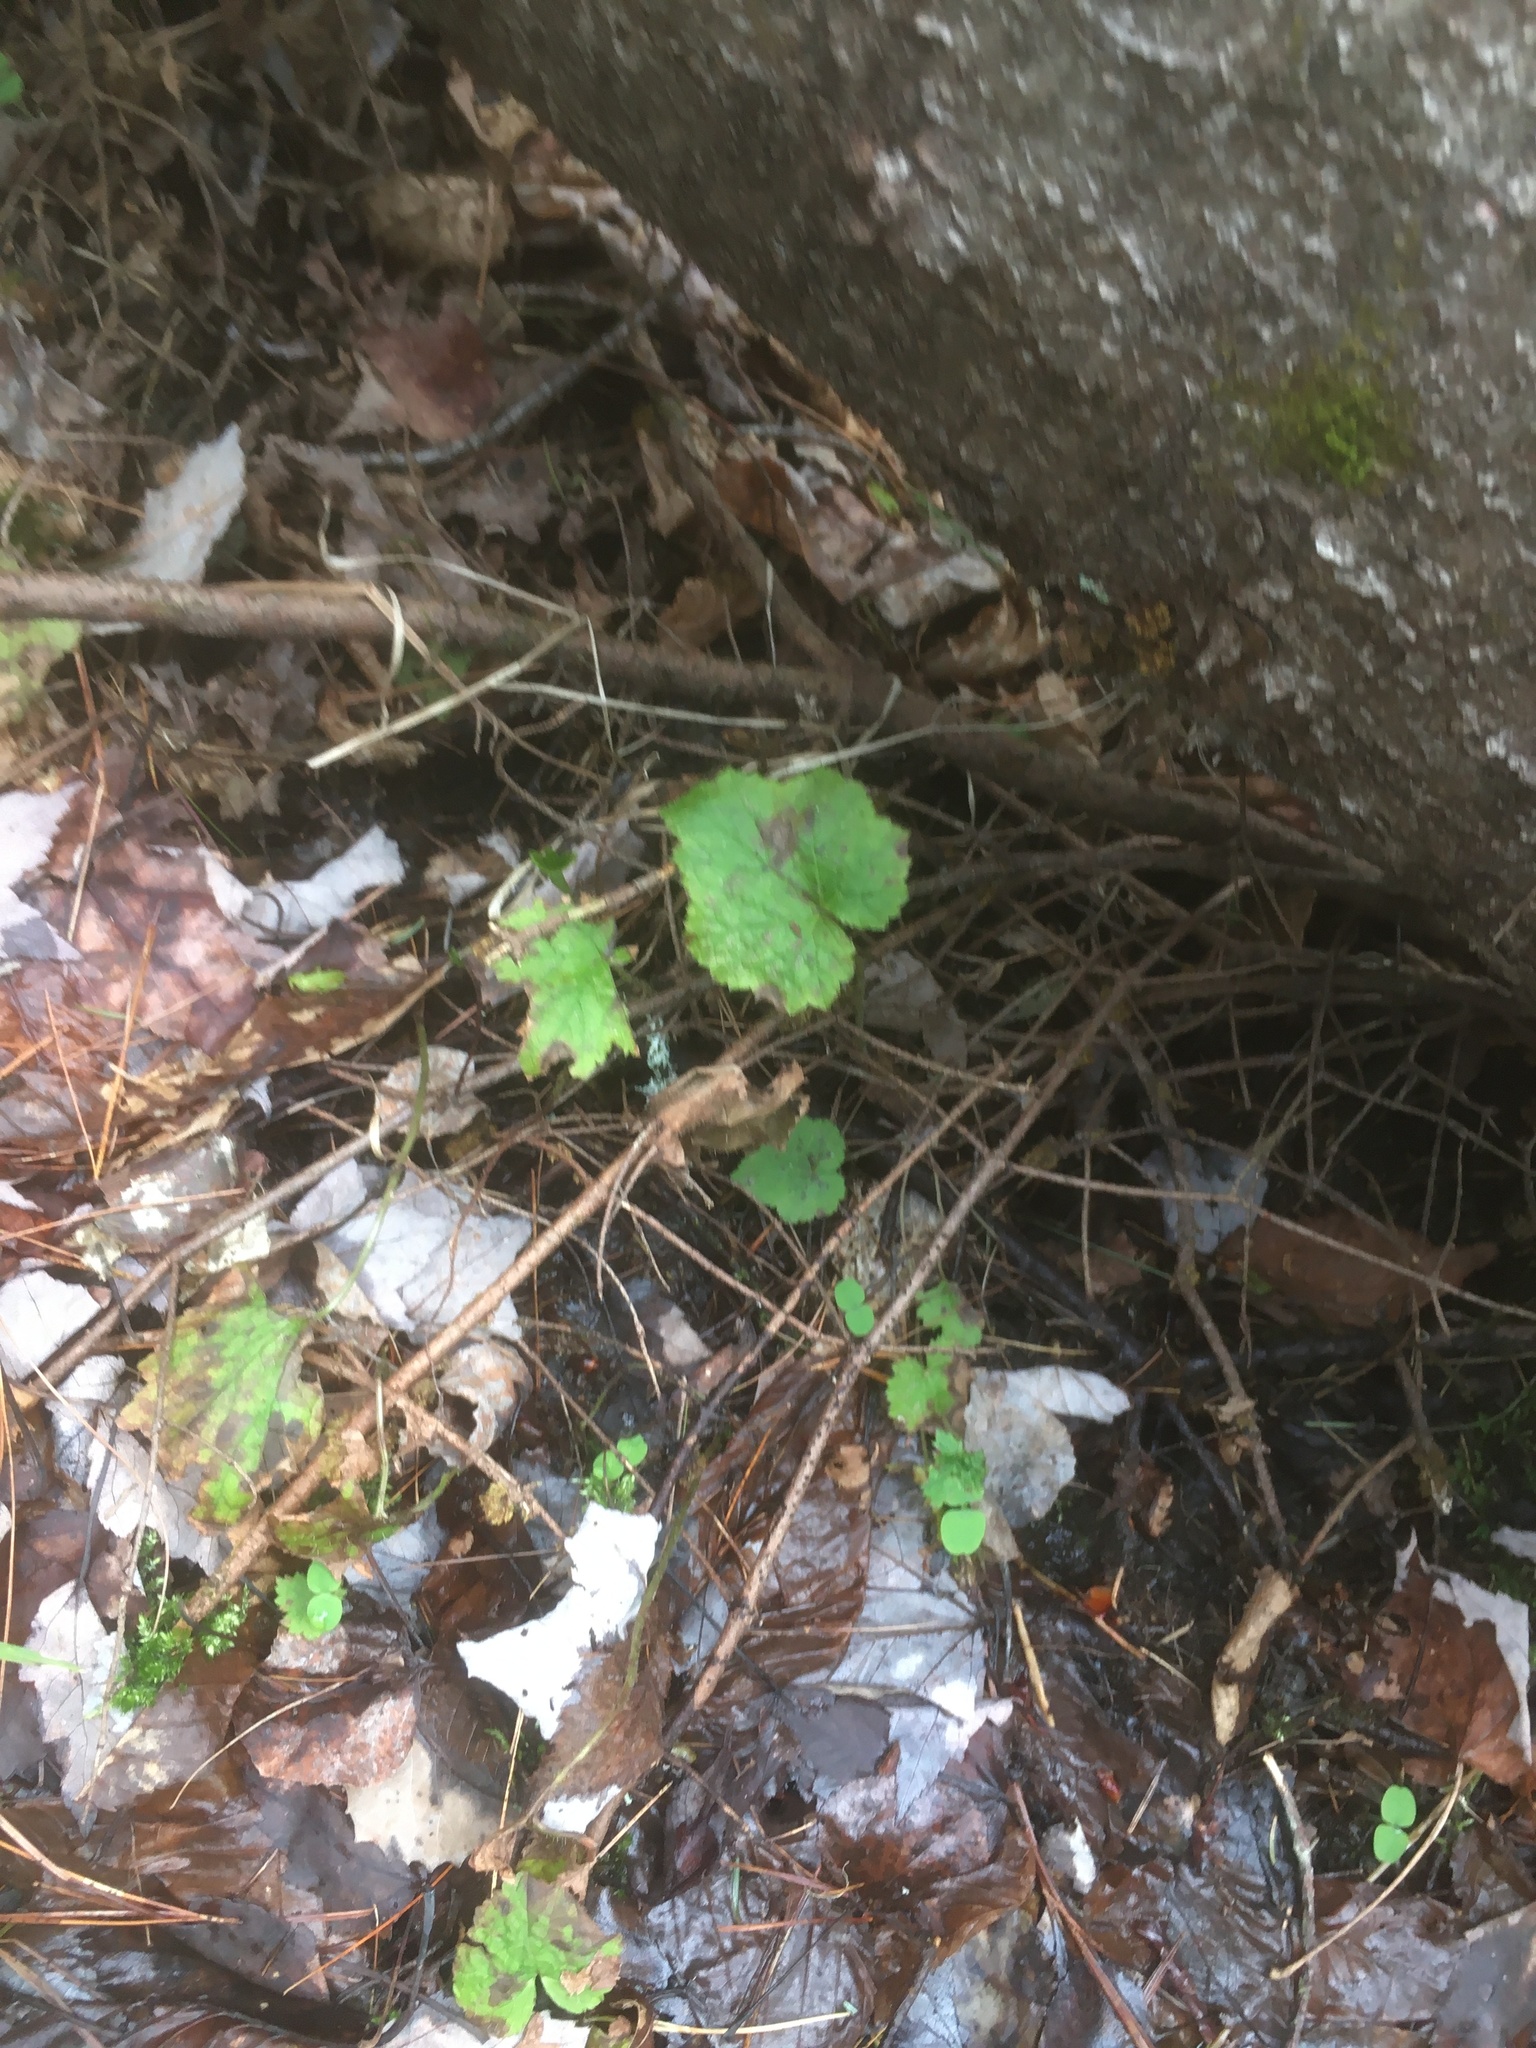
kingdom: Plantae
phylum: Tracheophyta
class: Magnoliopsida
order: Saxifragales
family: Saxifragaceae
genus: Tiarella
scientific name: Tiarella stolonifera
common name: Stoloniferous foamflower
